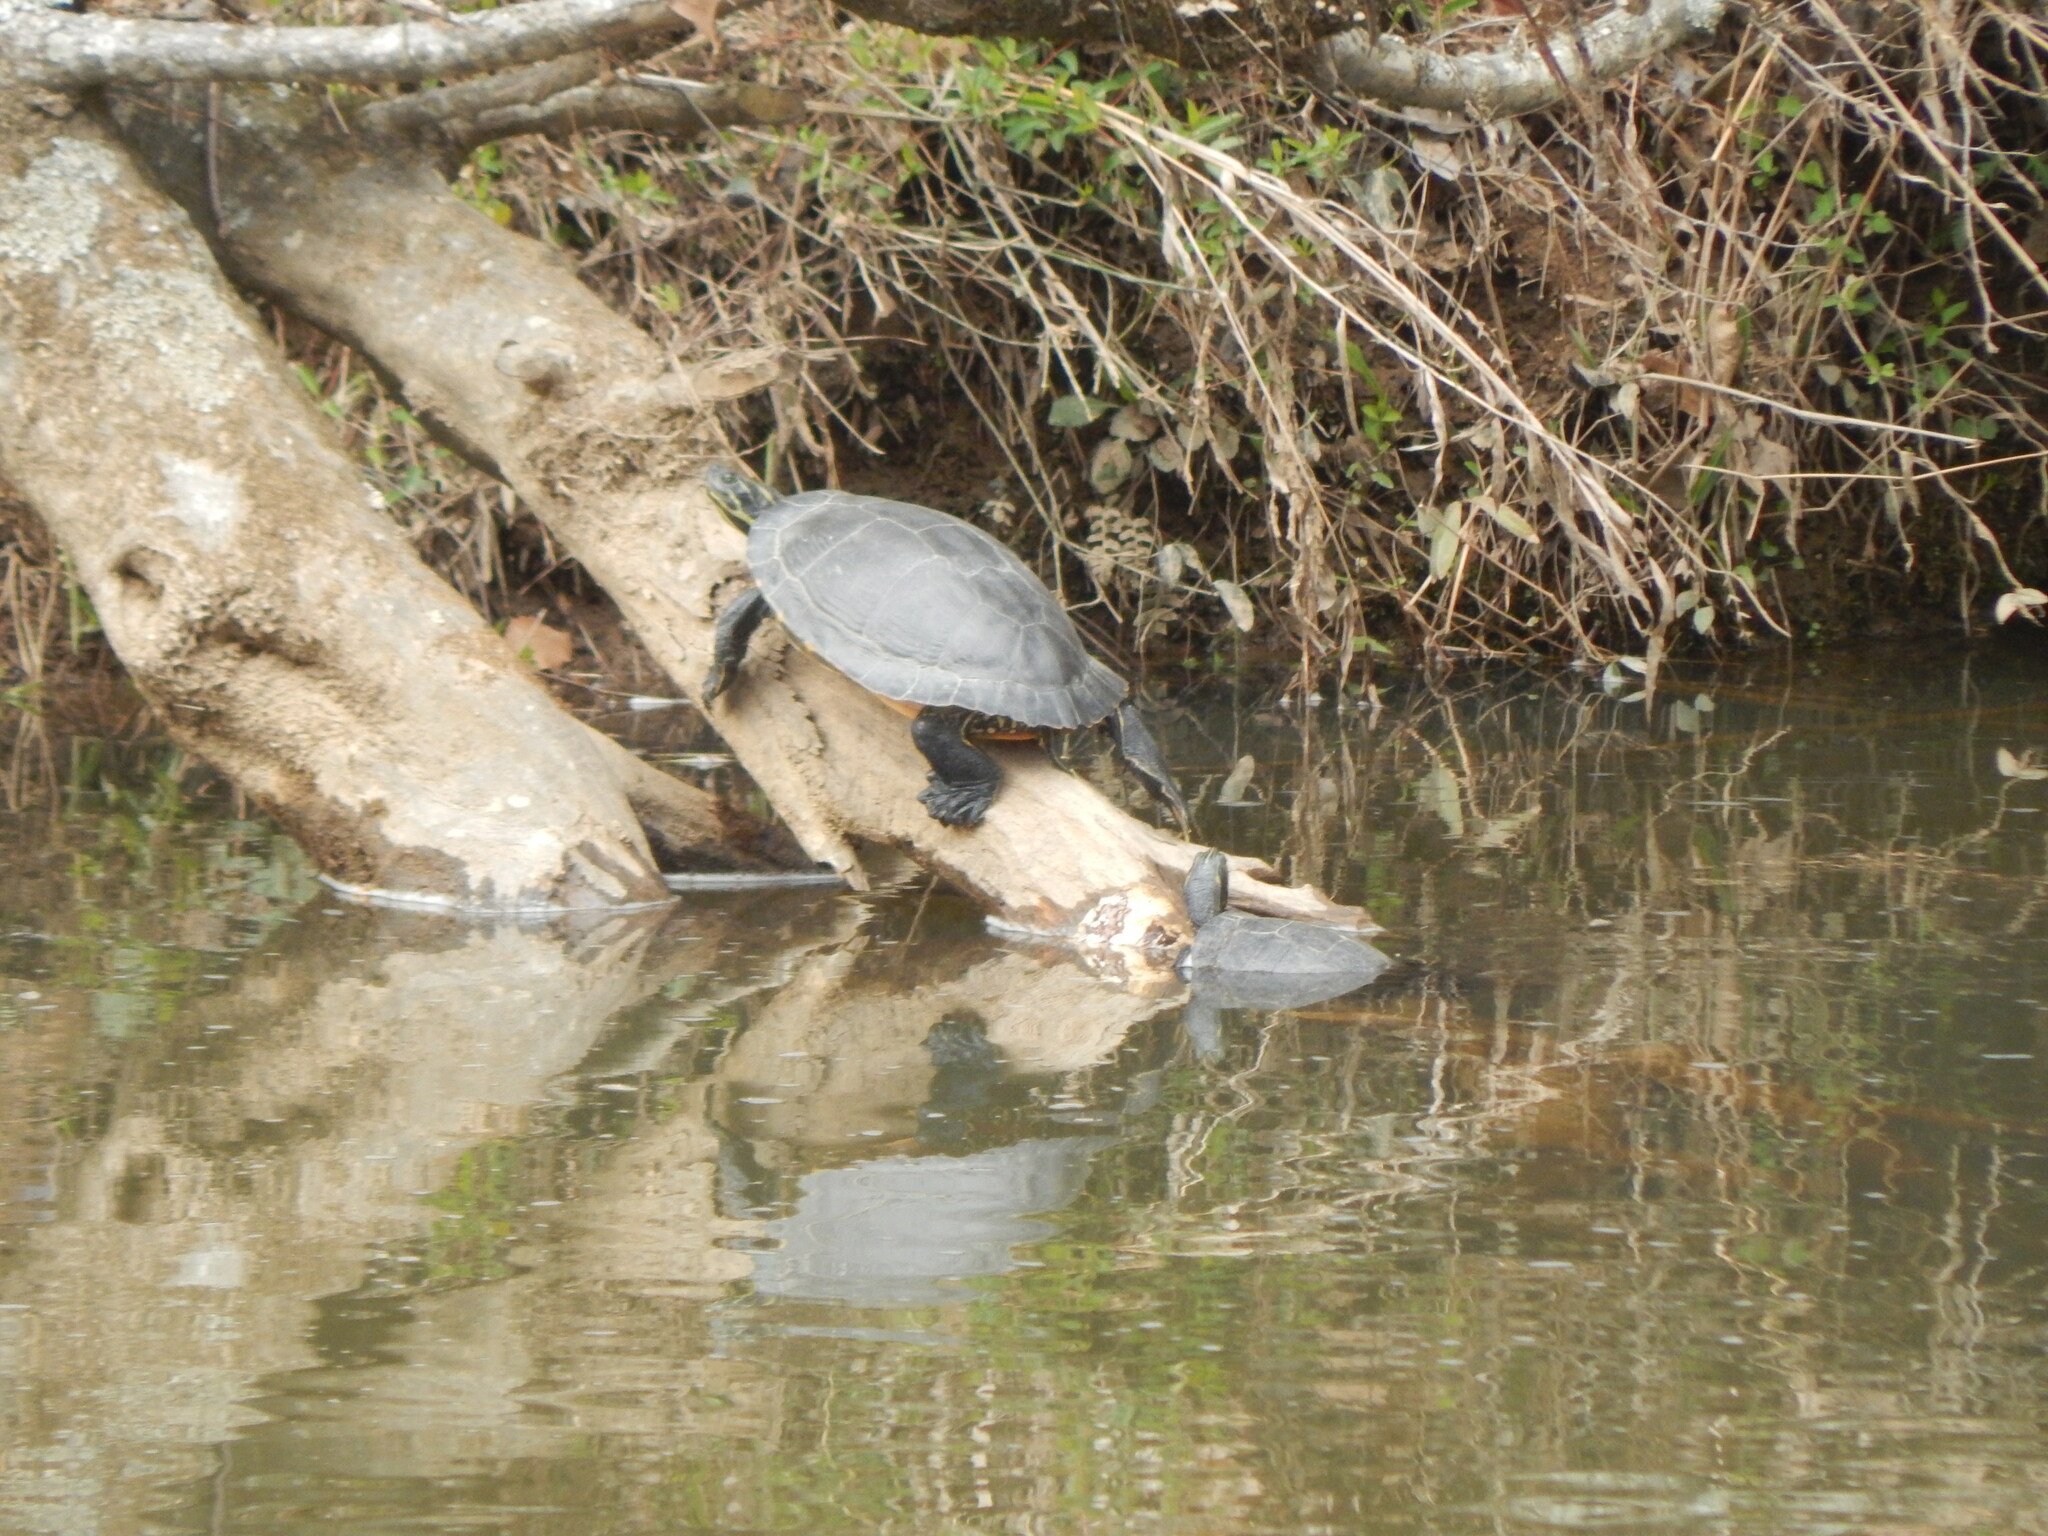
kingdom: Animalia
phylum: Chordata
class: Testudines
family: Emydidae
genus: Pseudemys
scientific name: Pseudemys concinna
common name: Eastern river cooter
